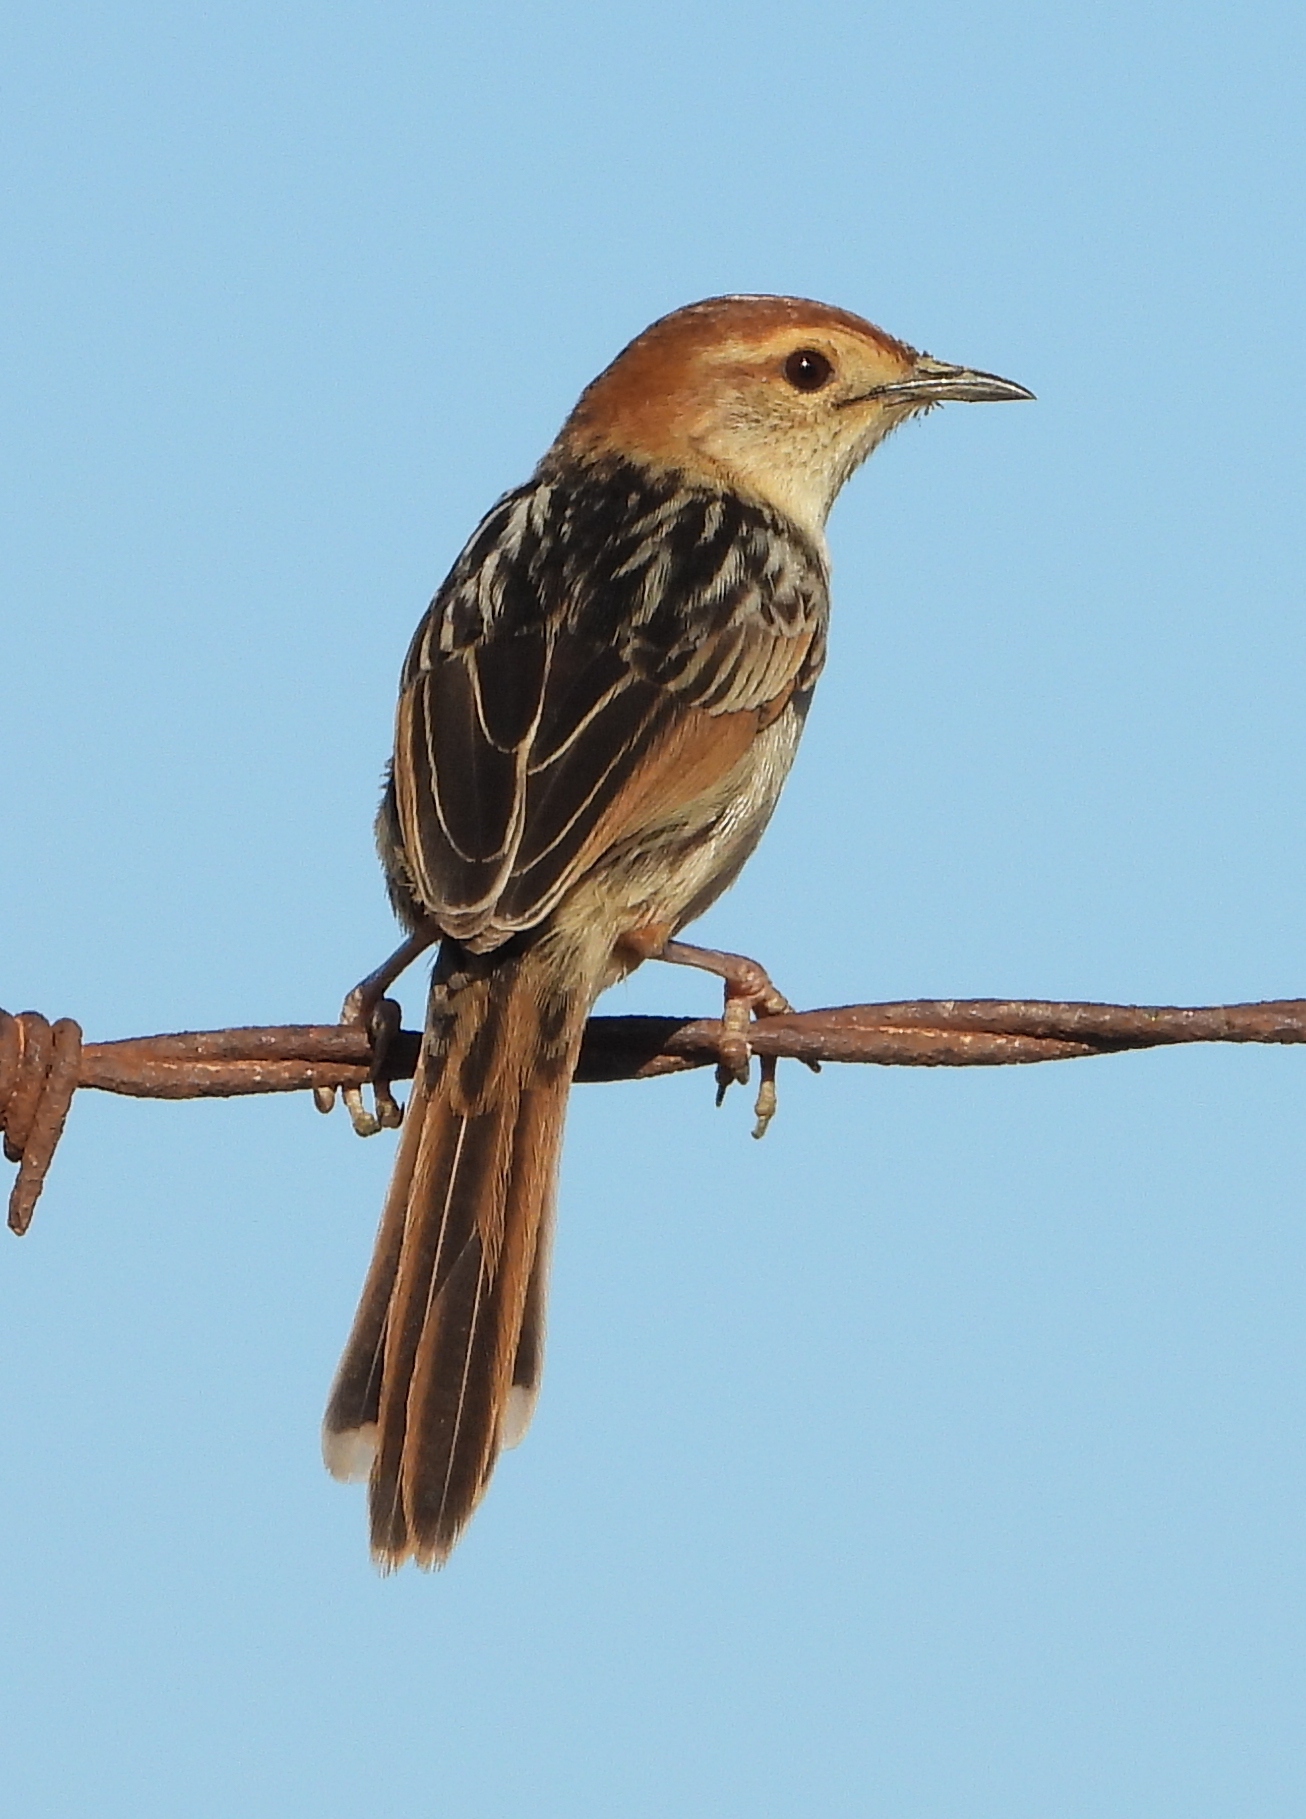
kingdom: Animalia
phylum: Chordata
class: Aves
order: Passeriformes
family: Cisticolidae
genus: Cisticola
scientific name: Cisticola tinniens
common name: Levaillant's cisticola
